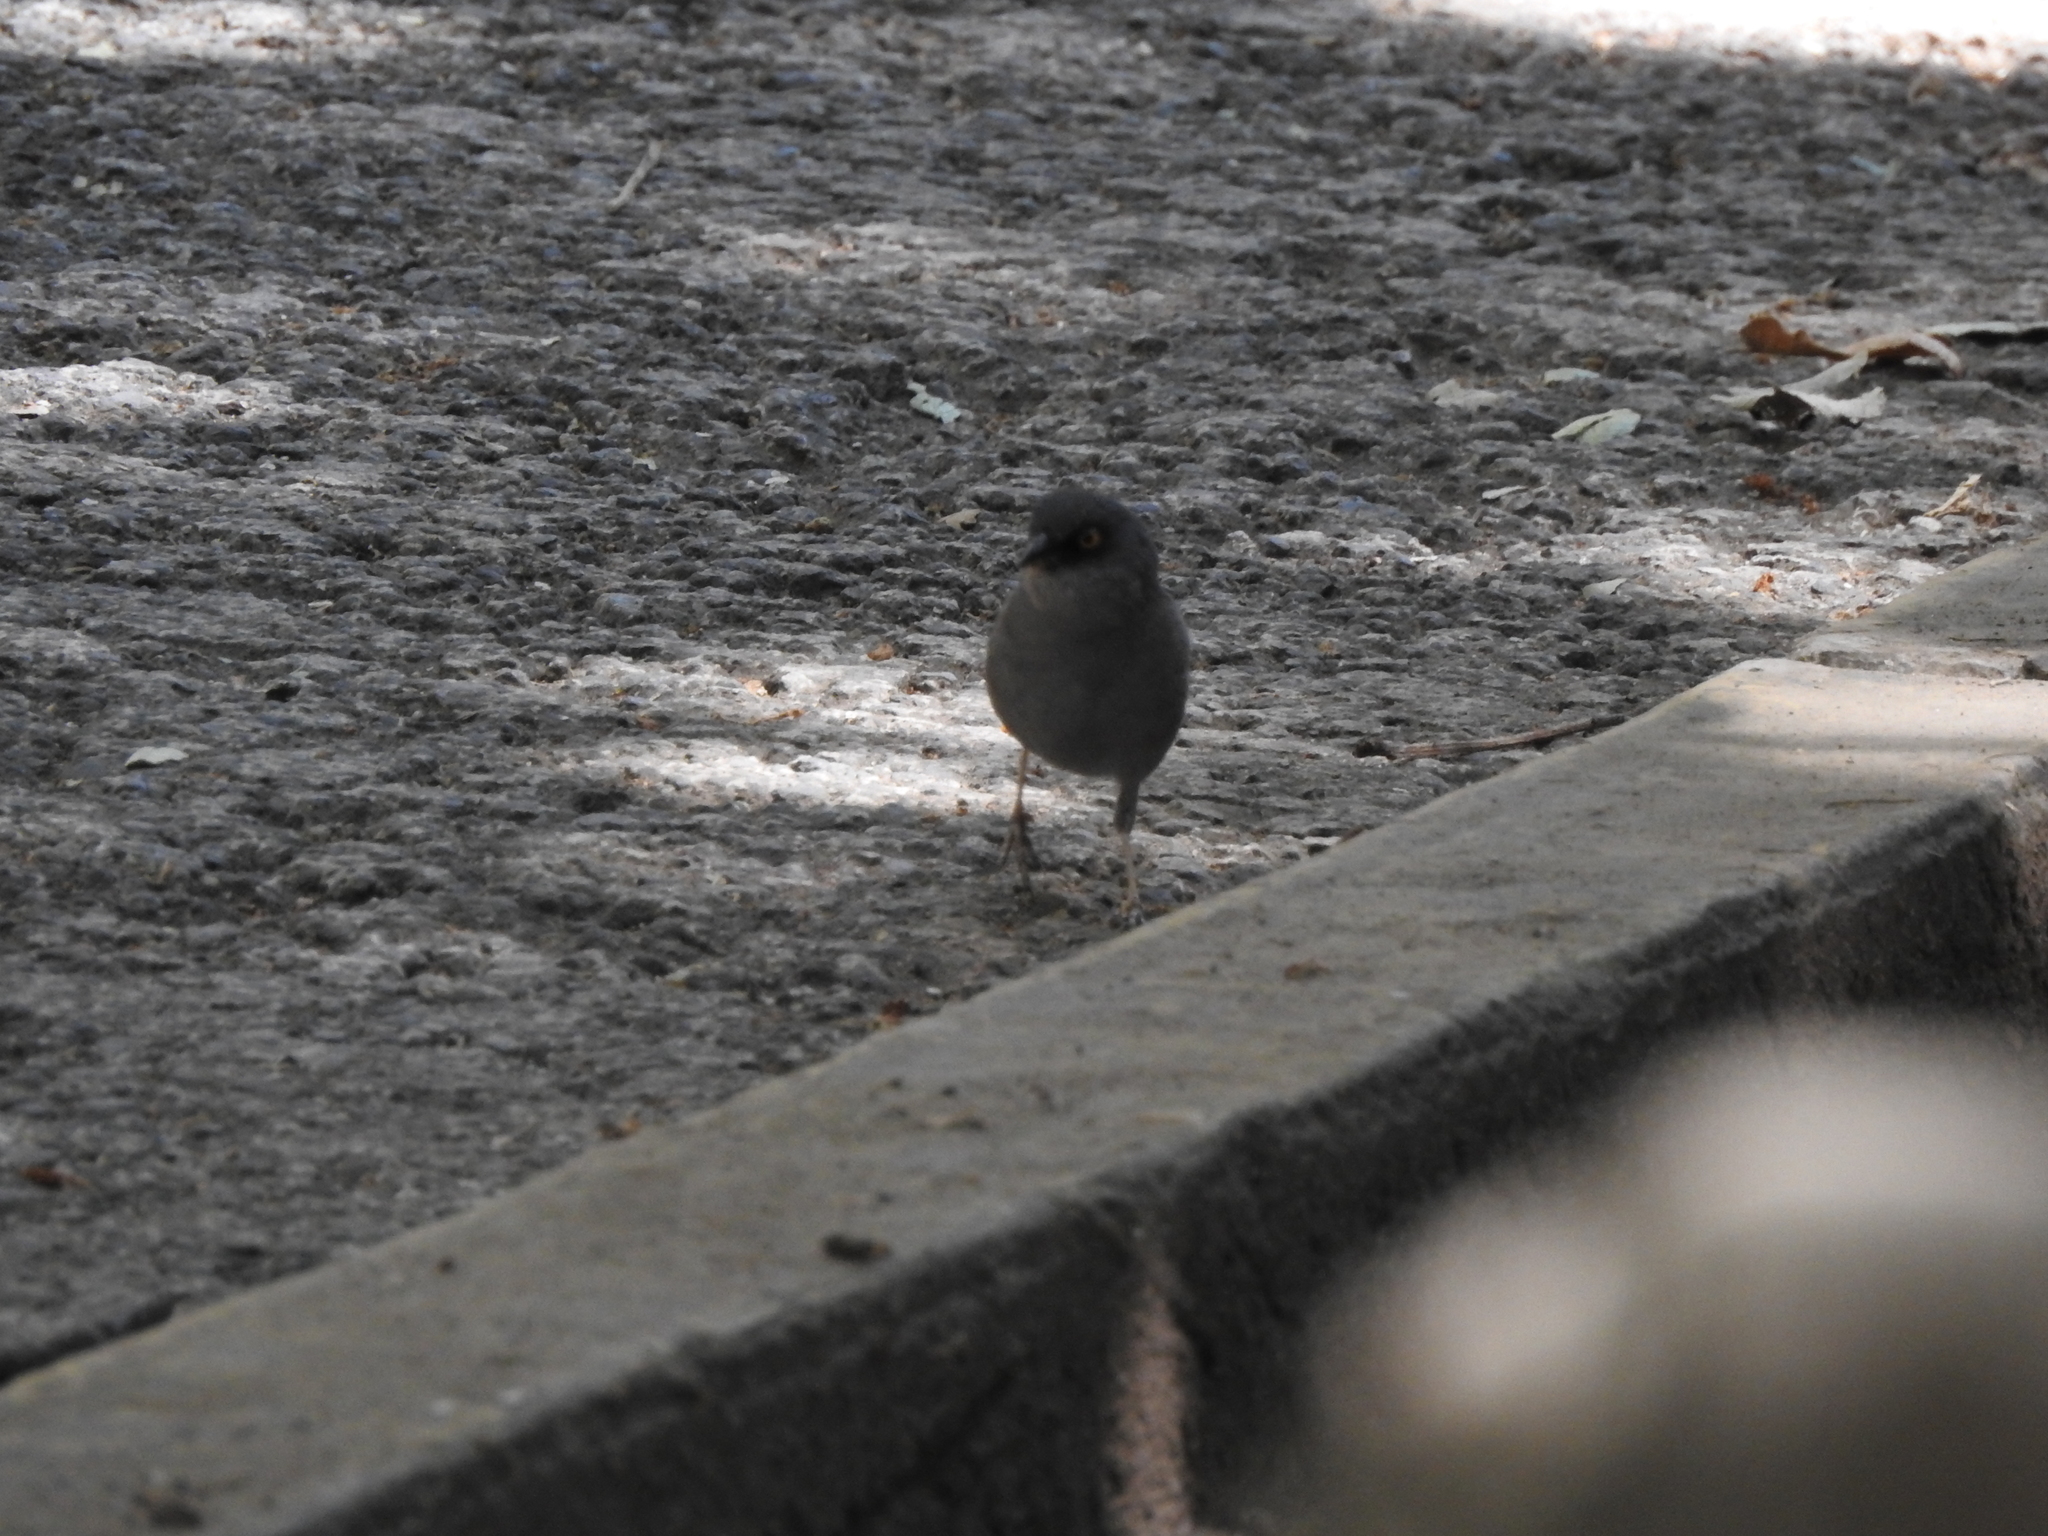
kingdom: Animalia
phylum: Chordata
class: Aves
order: Passeriformes
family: Passerellidae
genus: Junco
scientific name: Junco phaeonotus
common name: Yellow-eyed junco
